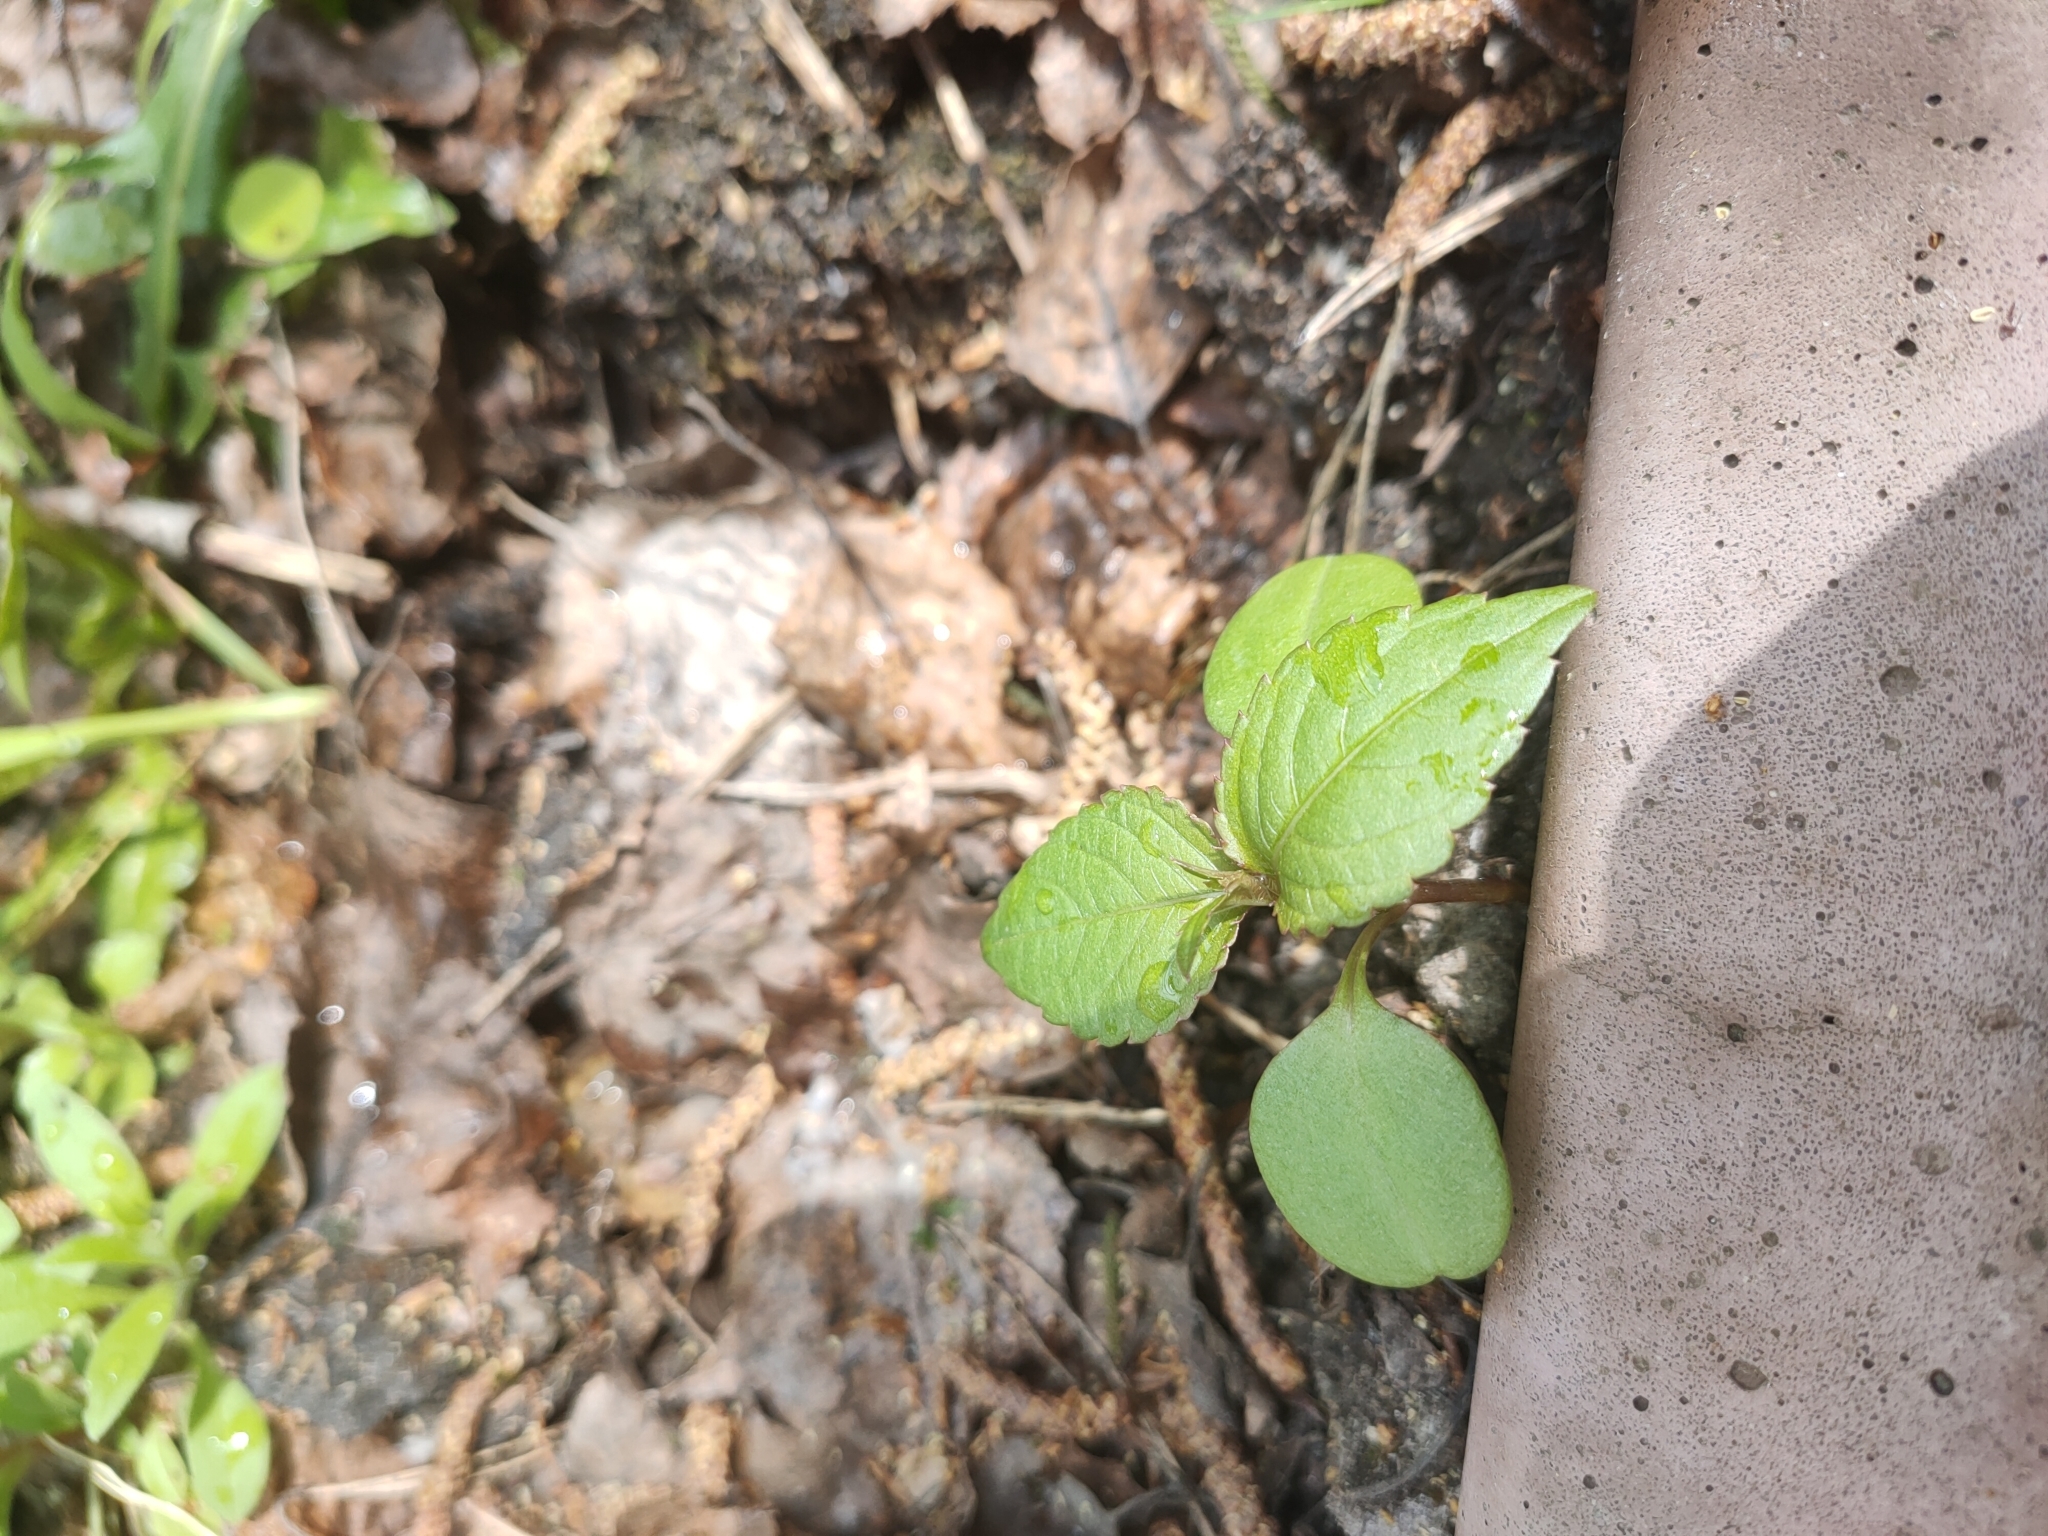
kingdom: Plantae
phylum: Tracheophyta
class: Magnoliopsida
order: Ericales
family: Balsaminaceae
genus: Impatiens
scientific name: Impatiens parviflora
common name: Small balsam
